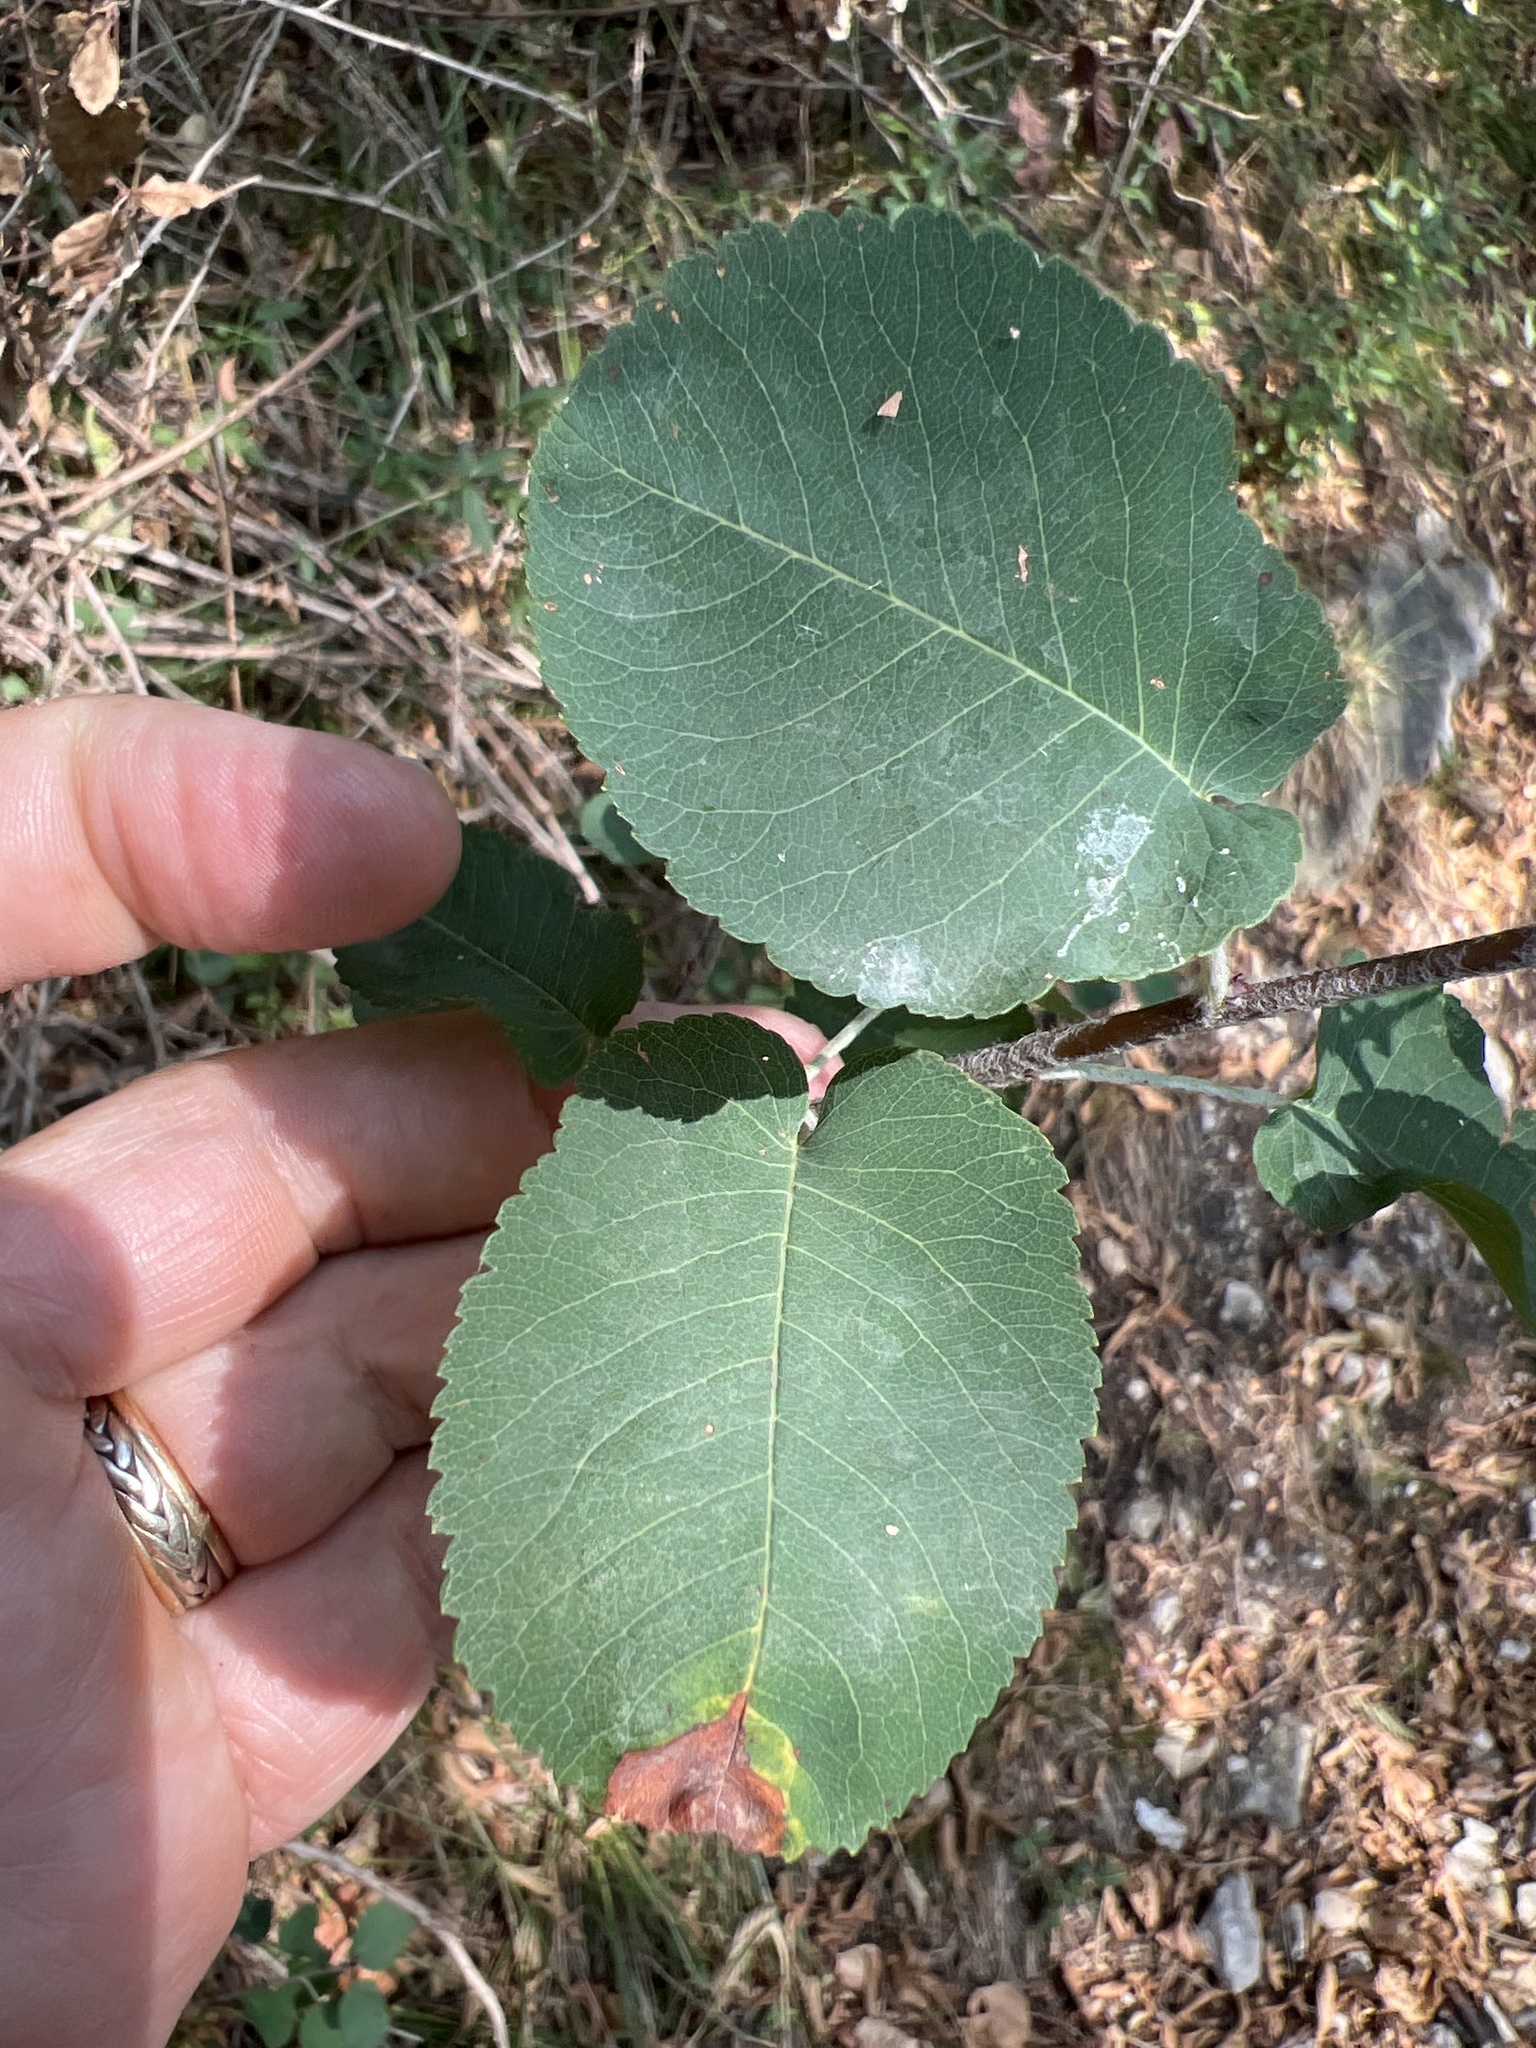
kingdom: Plantae
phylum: Tracheophyta
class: Magnoliopsida
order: Rosales
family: Rosaceae
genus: Amelanchier
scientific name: Amelanchier ovalis
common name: Serviceberry
